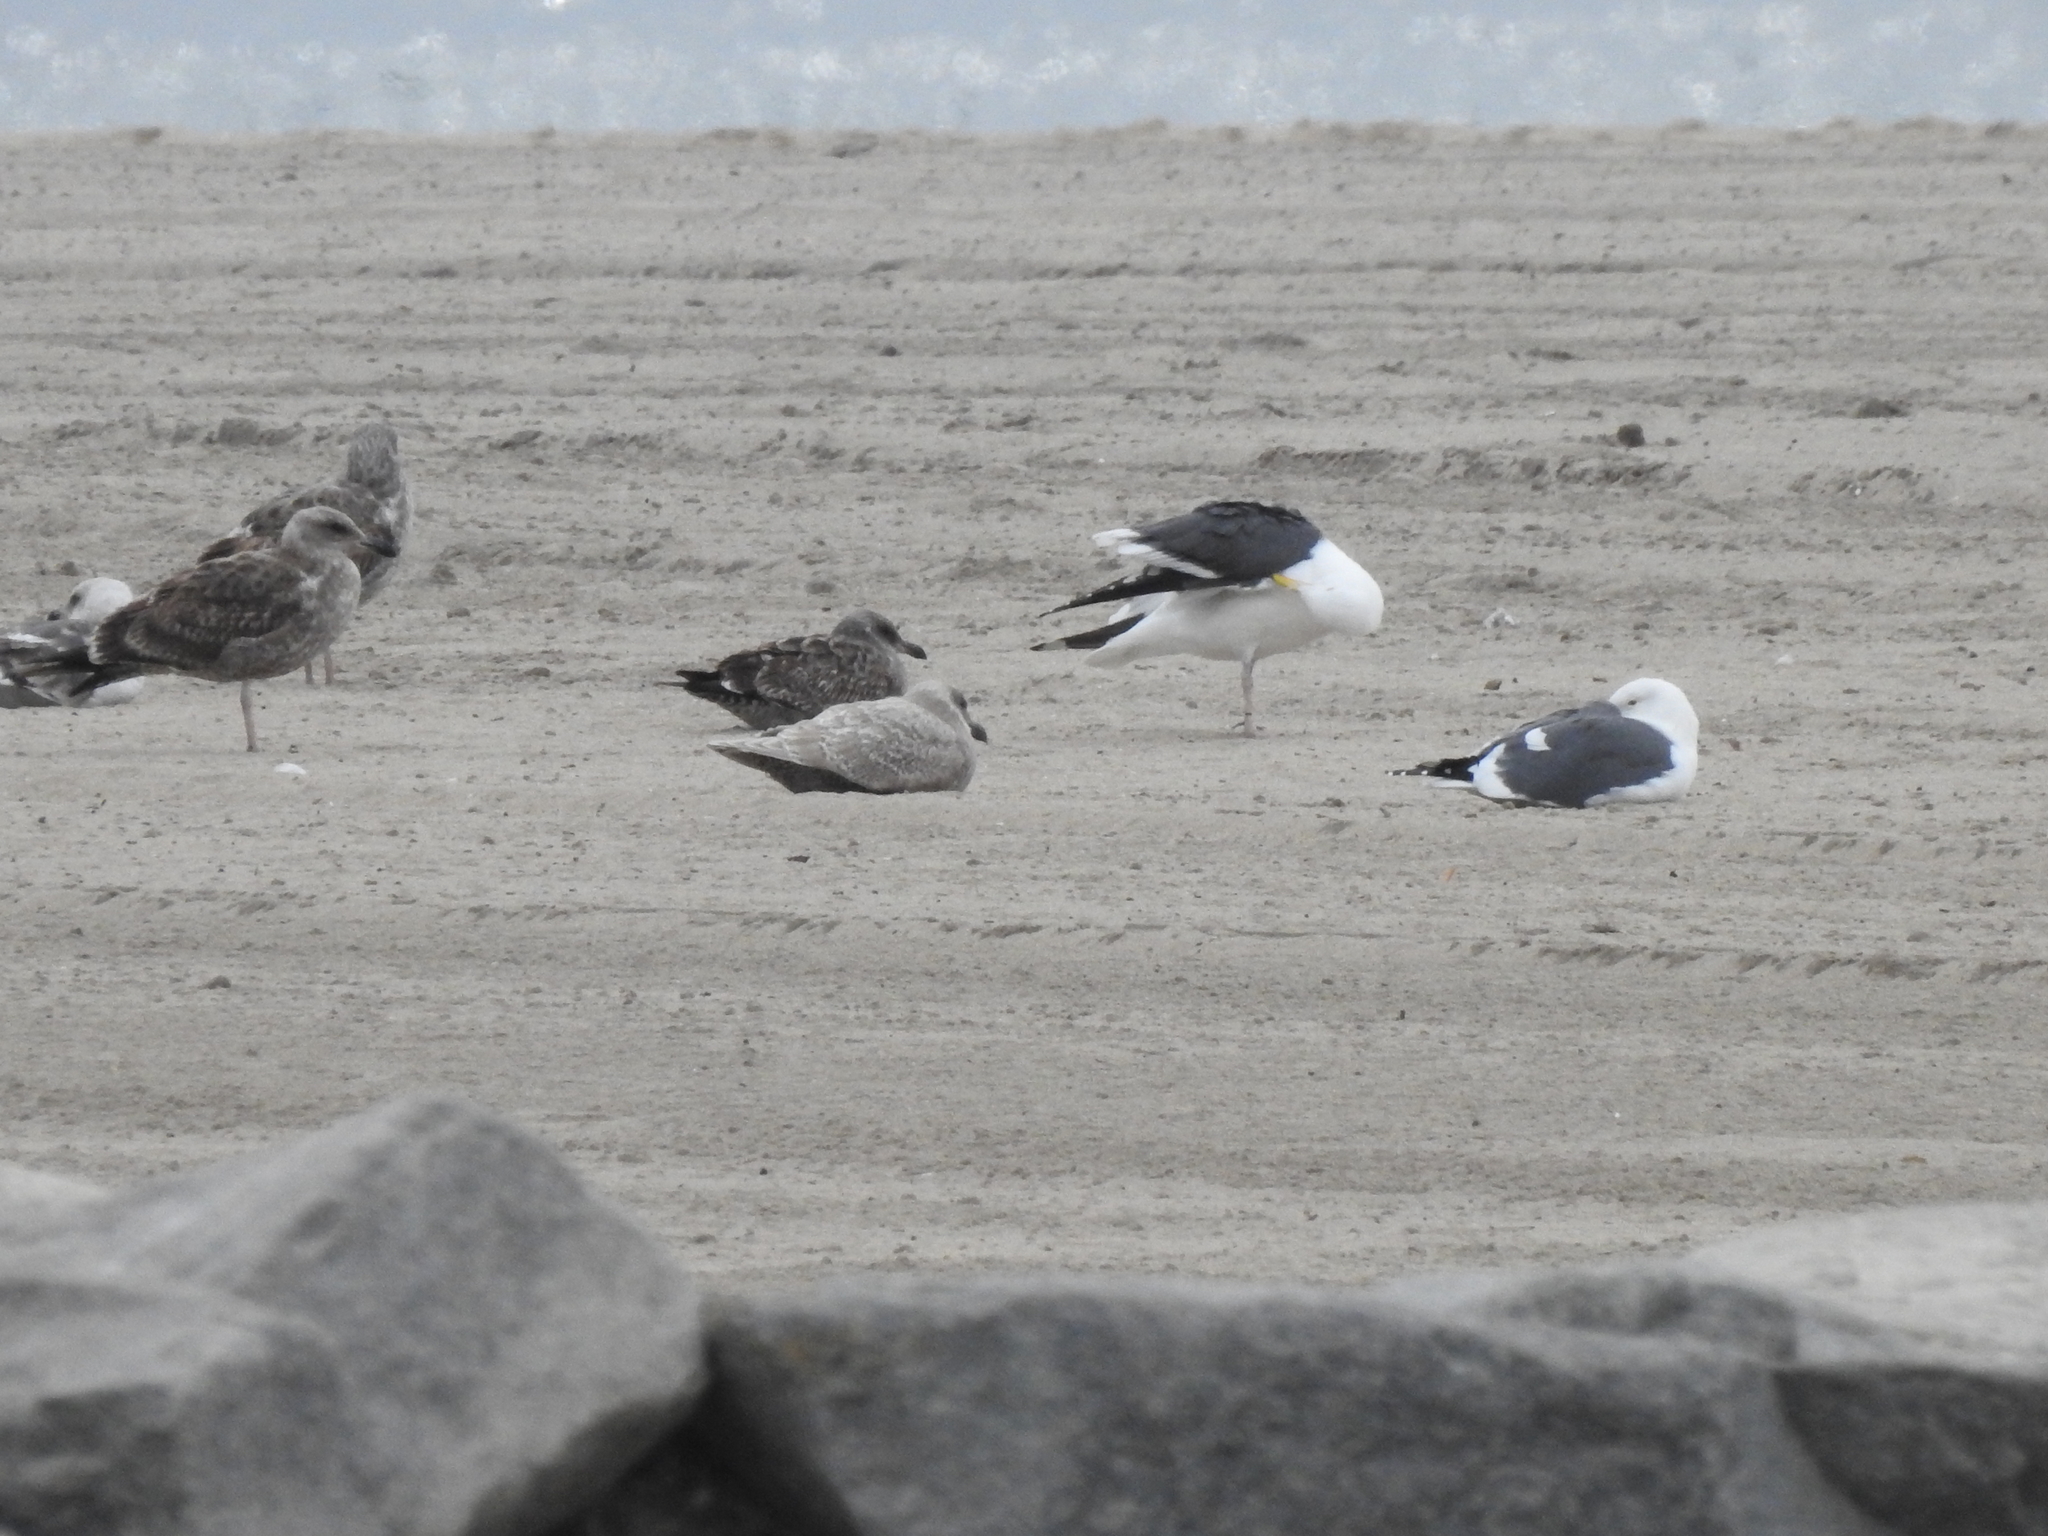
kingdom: Animalia
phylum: Chordata
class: Aves
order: Charadriiformes
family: Laridae
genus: Larus
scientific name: Larus glaucescens
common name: Glaucous-winged gull
